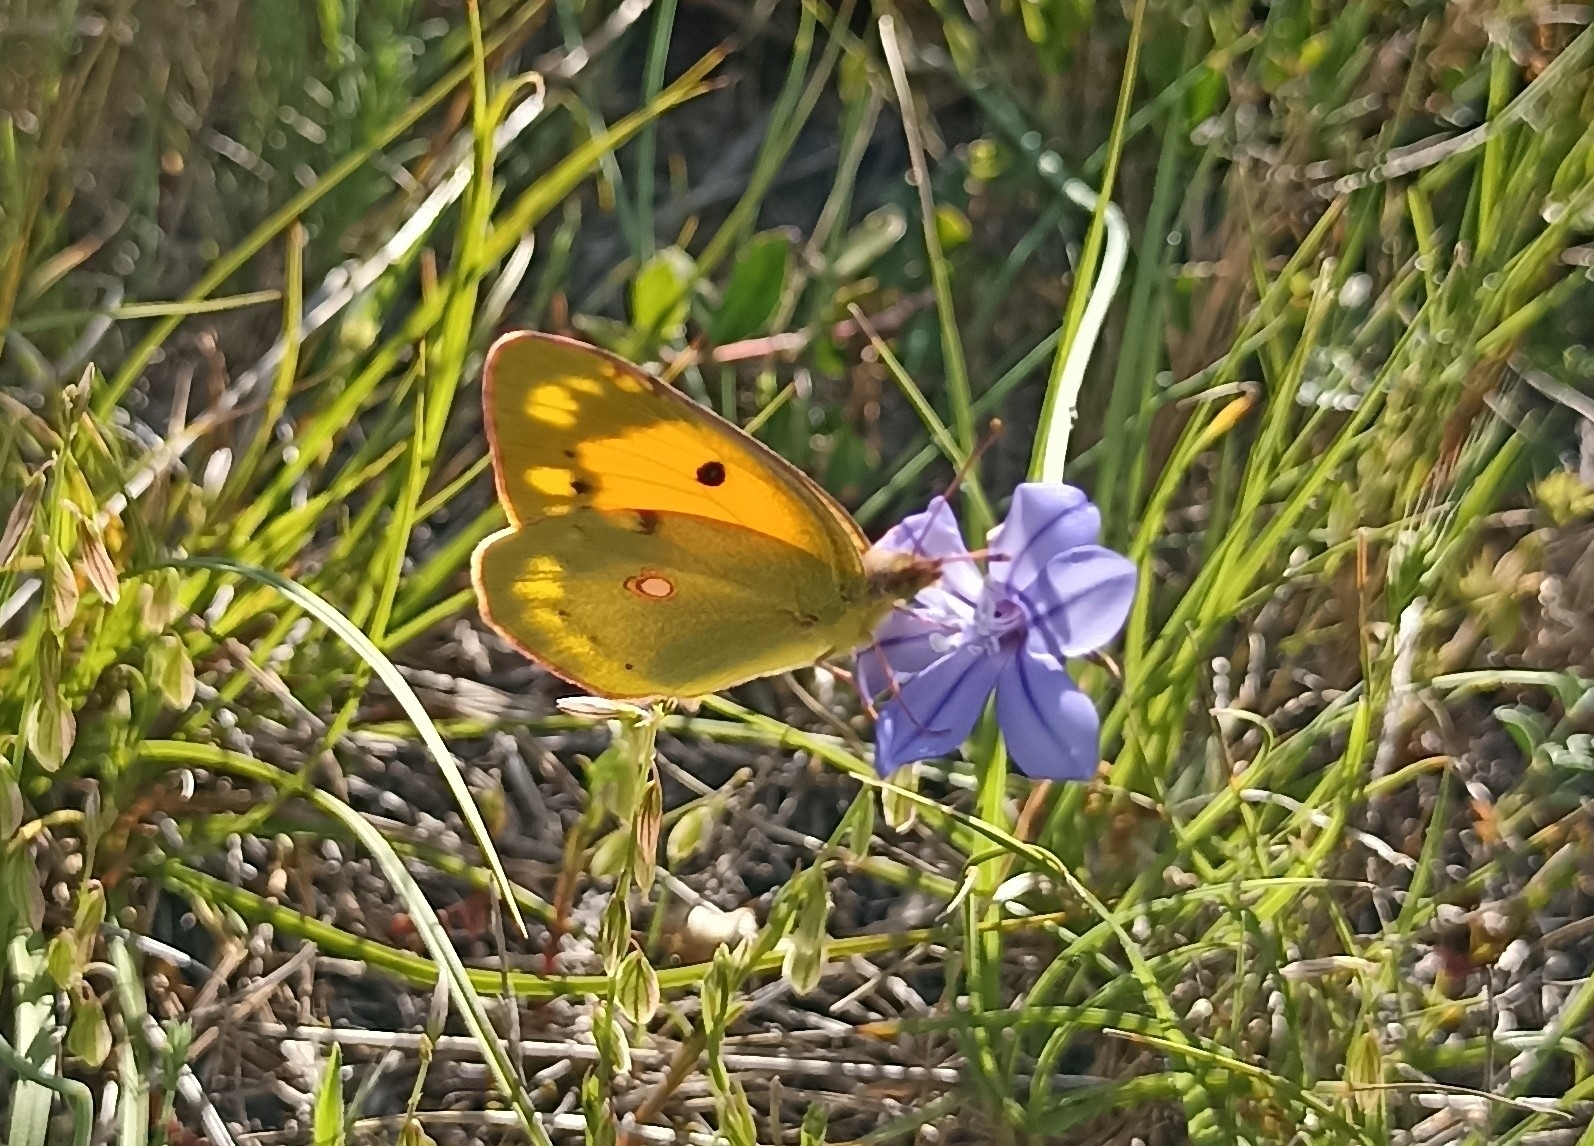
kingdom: Animalia
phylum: Arthropoda
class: Insecta
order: Lepidoptera
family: Pieridae
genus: Colias
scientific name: Colias croceus
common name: Clouded yellow
